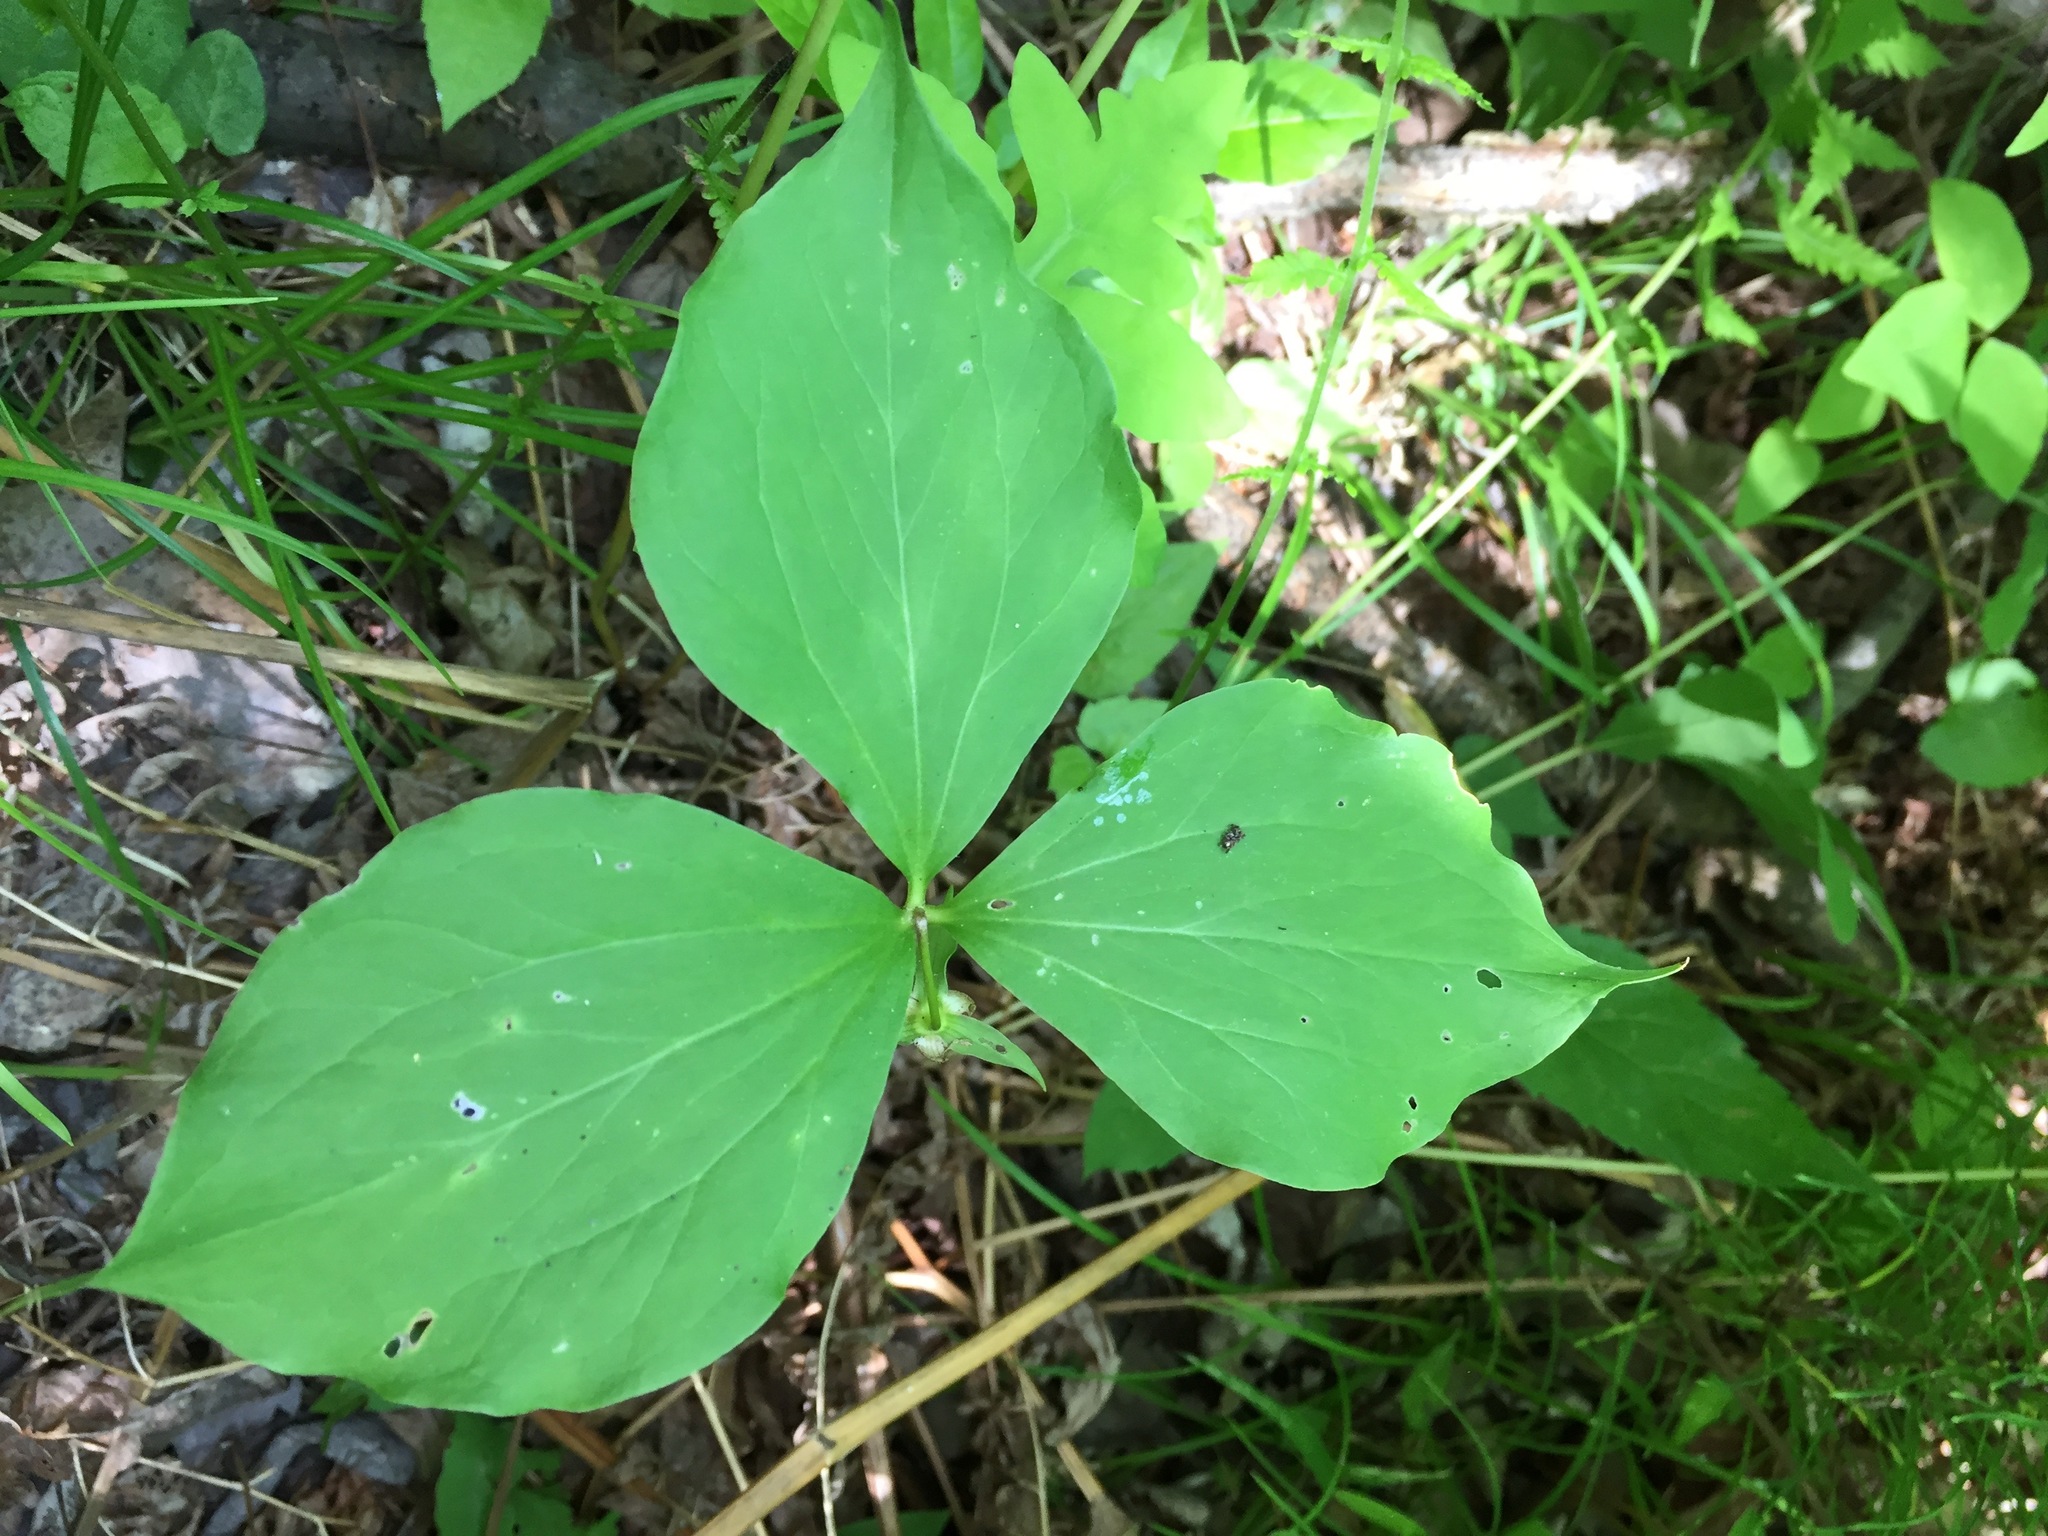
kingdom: Plantae
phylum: Tracheophyta
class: Liliopsida
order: Liliales
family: Melanthiaceae
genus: Trillium
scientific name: Trillium cernuum
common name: Nodding trillium
